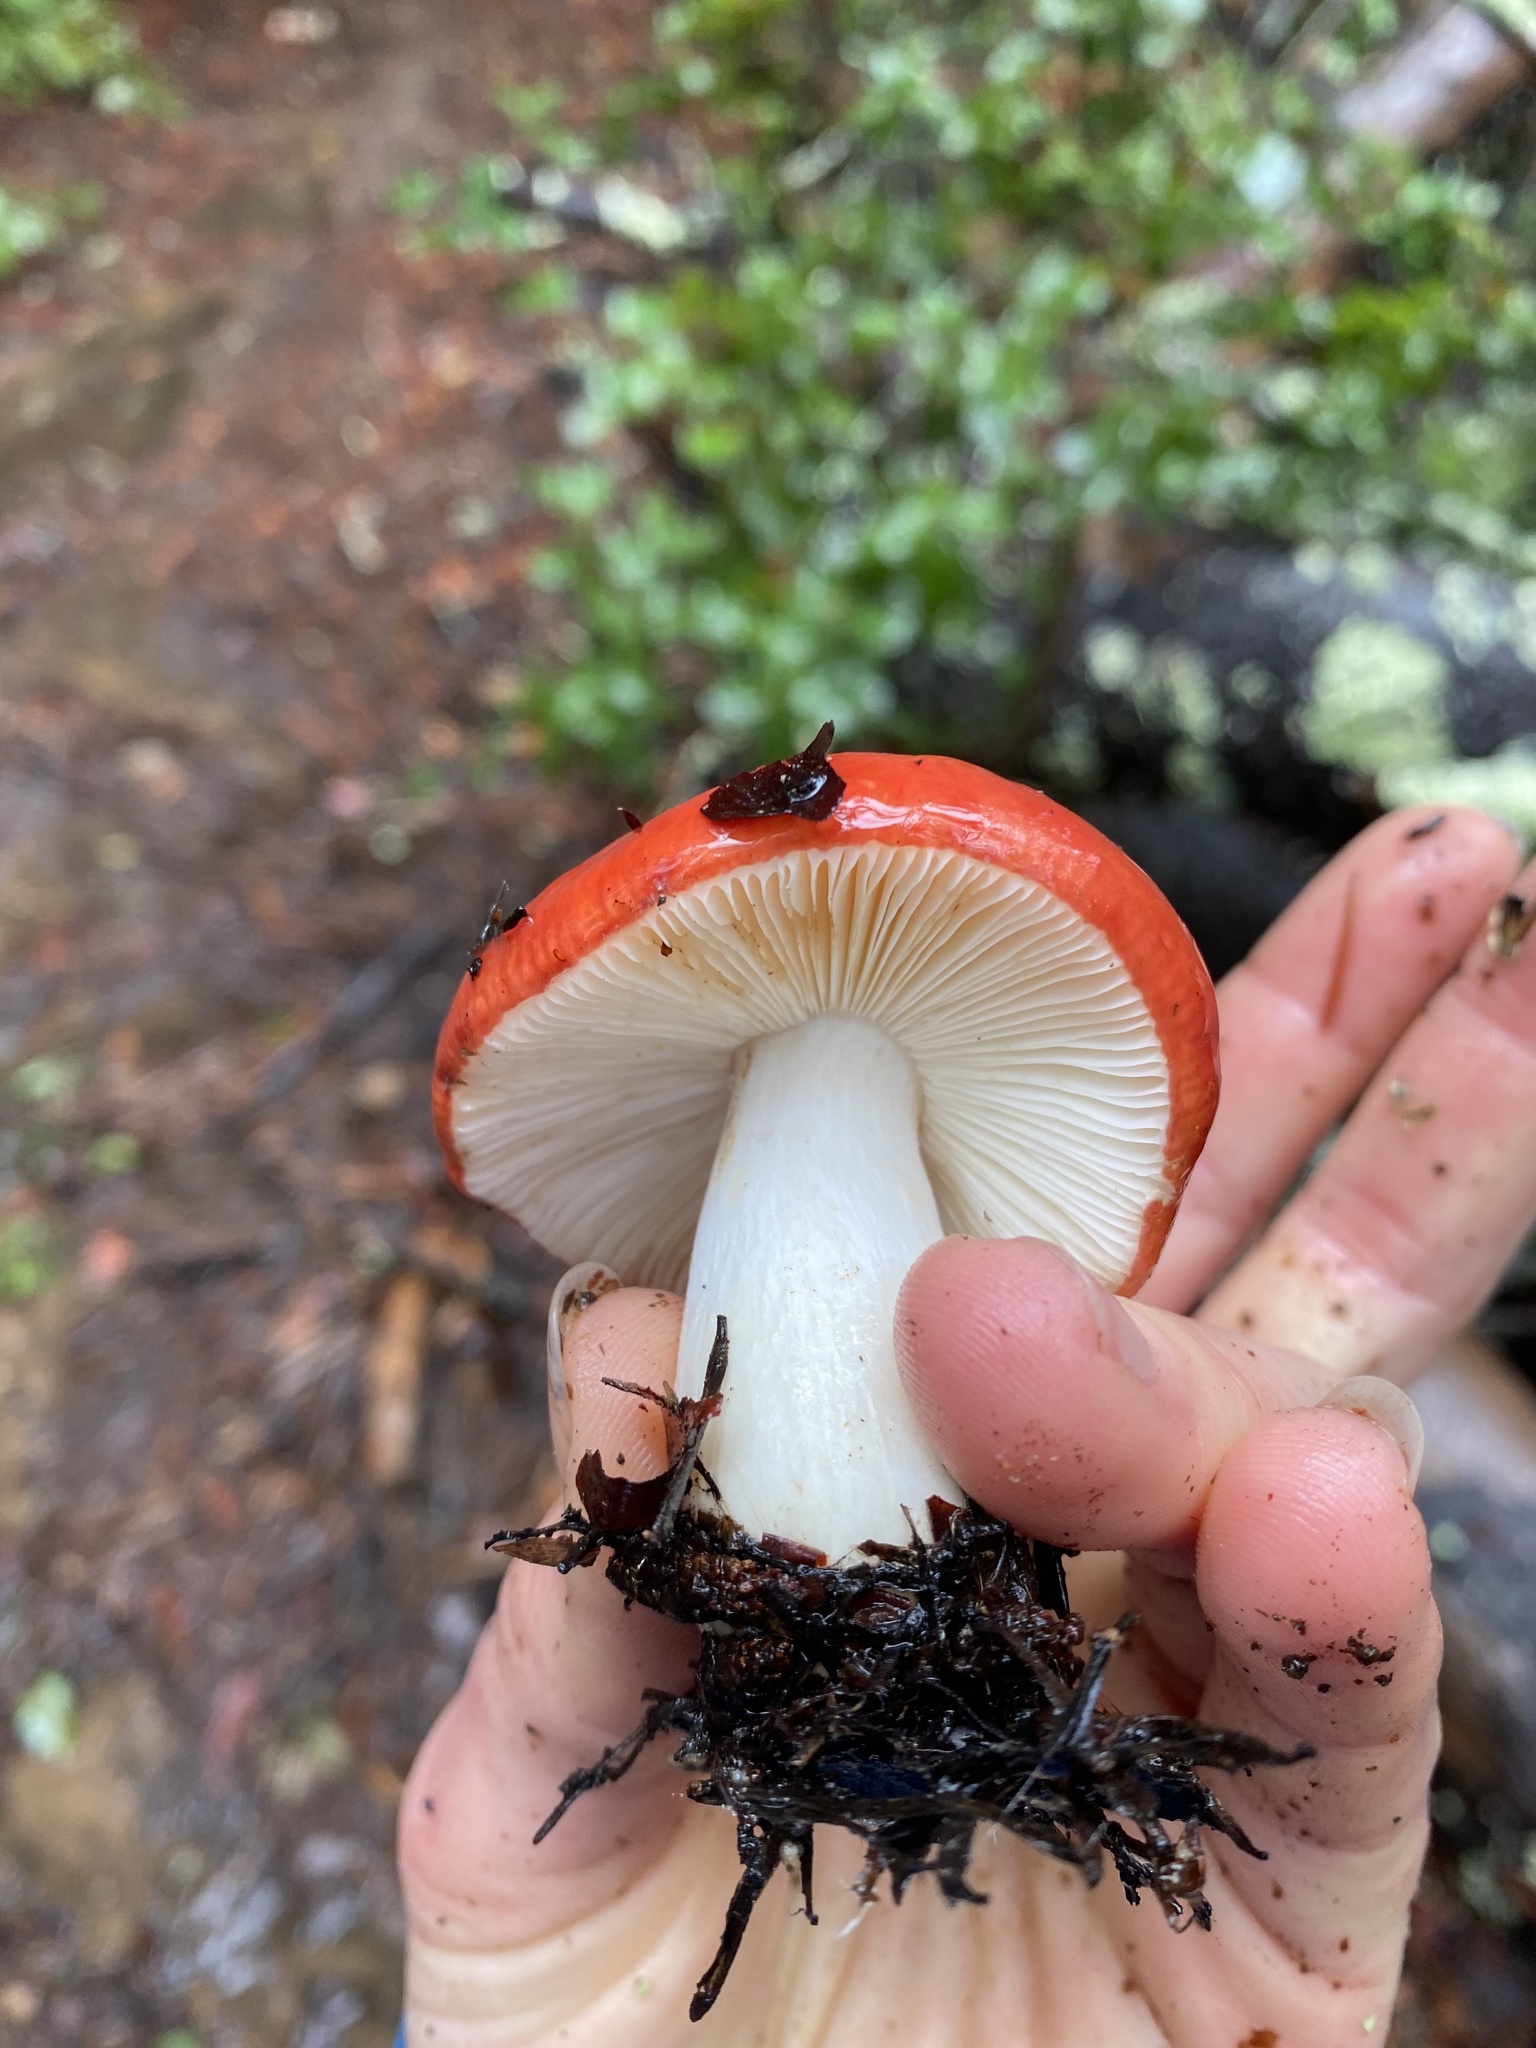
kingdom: Fungi
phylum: Basidiomycota
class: Agaricomycetes
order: Russulales
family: Russulaceae
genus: Russula
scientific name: Russula cremoricolor
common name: Winter russula
